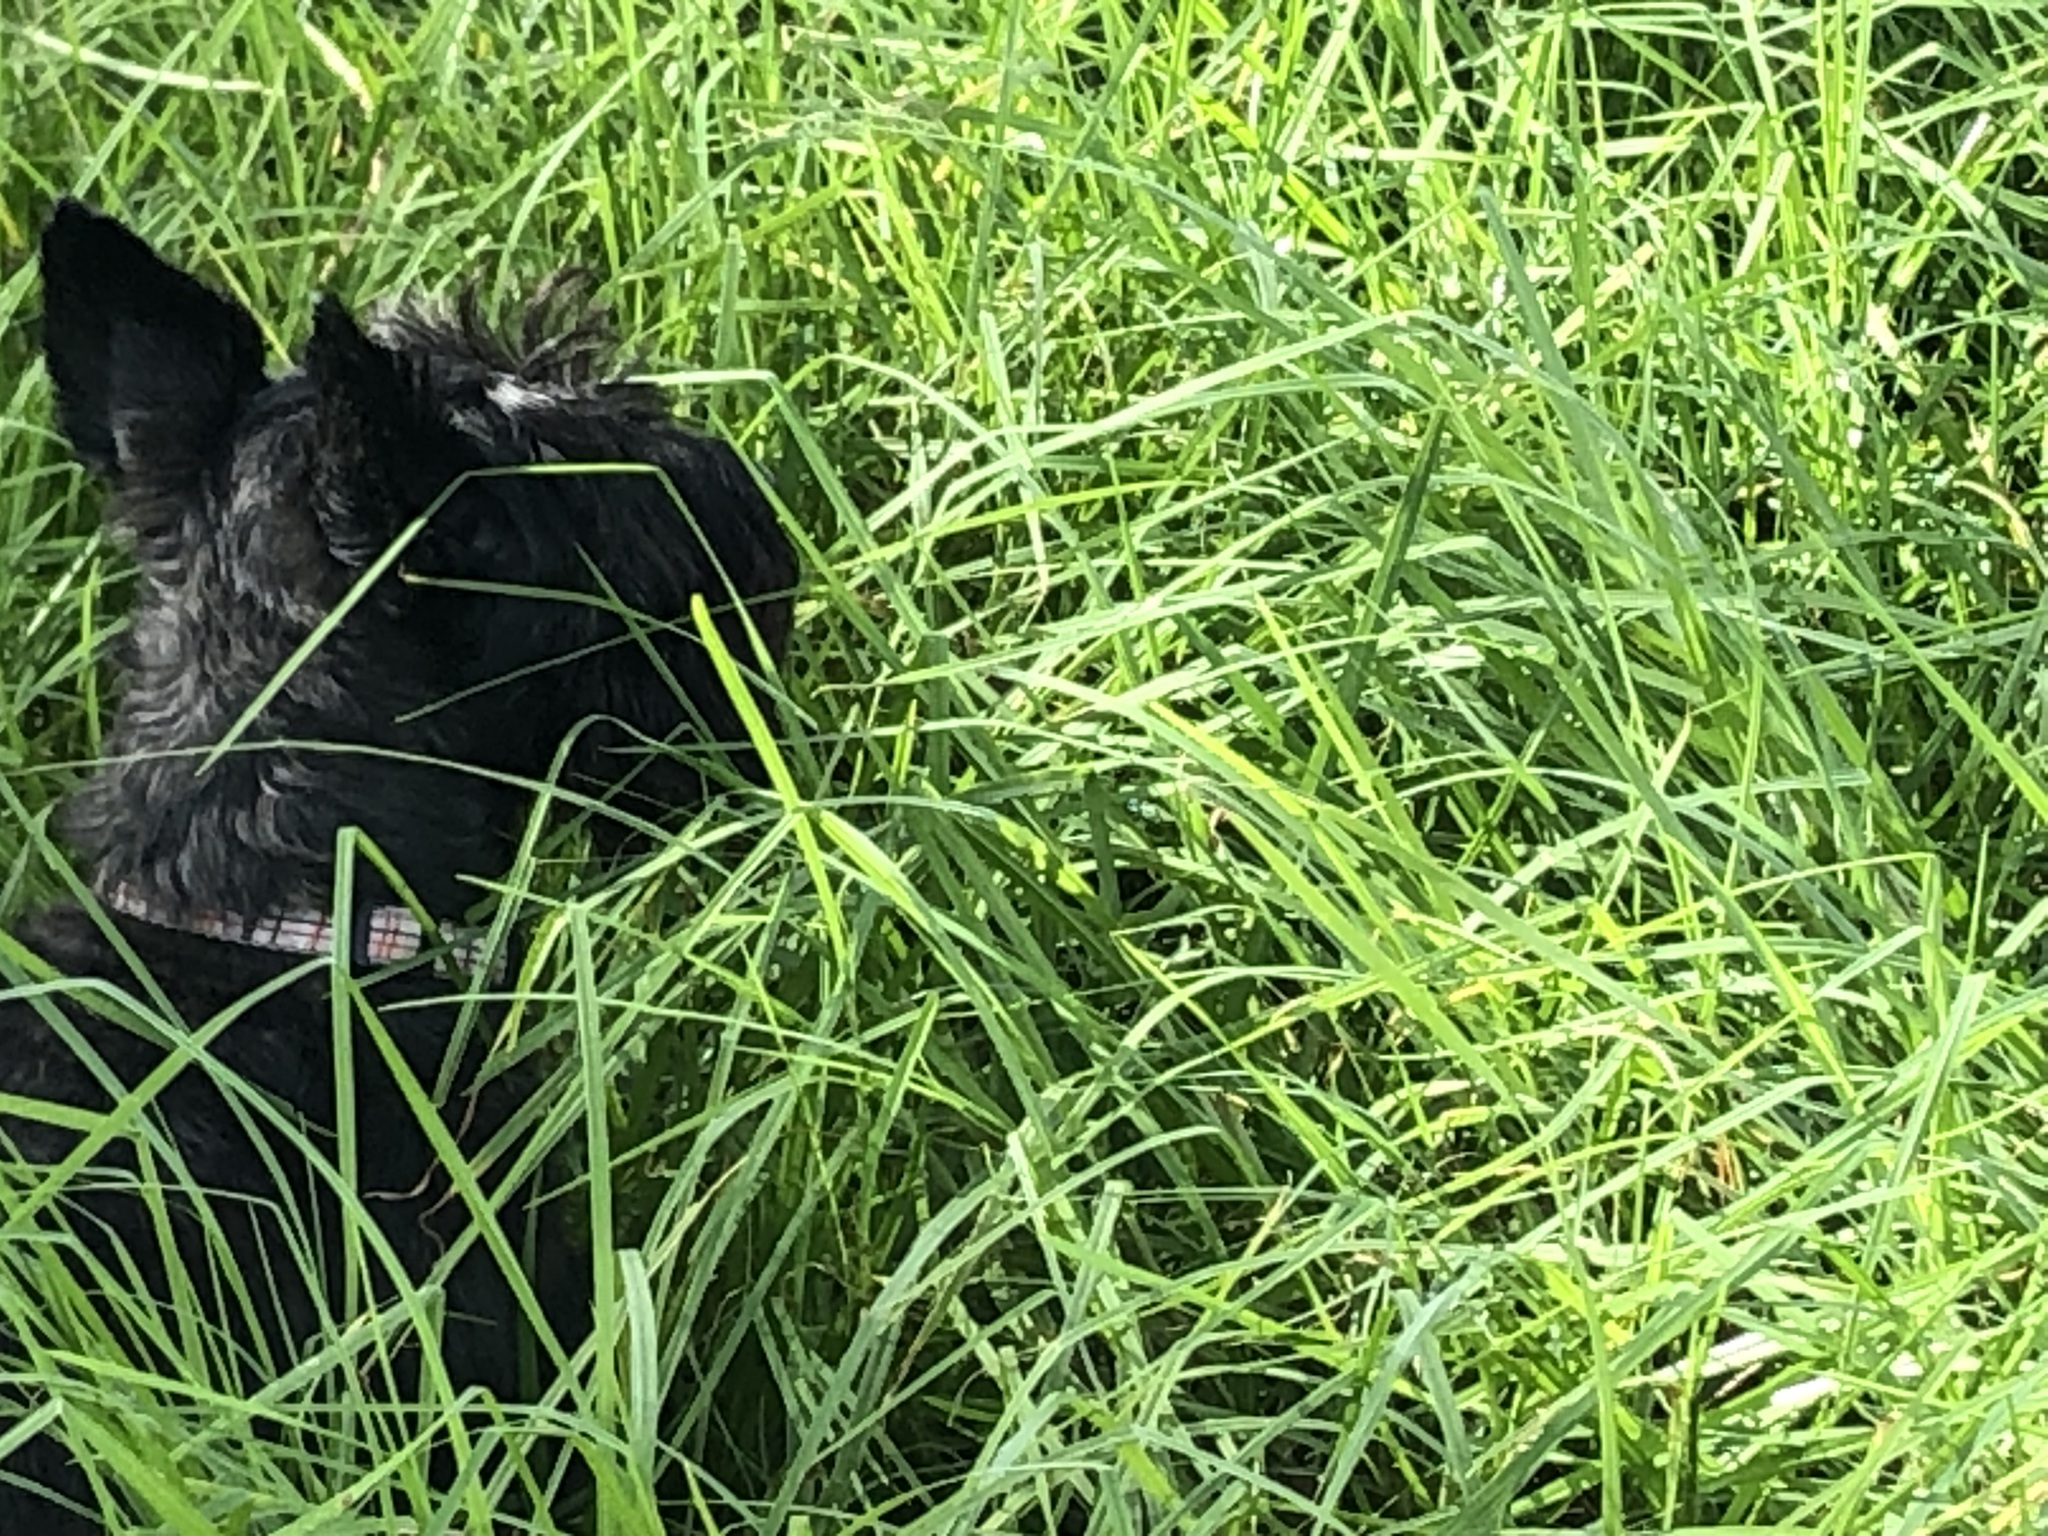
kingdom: Plantae
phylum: Tracheophyta
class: Liliopsida
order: Poales
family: Poaceae
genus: Cenchrus
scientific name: Cenchrus clandestinus
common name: Kikuyugrass
